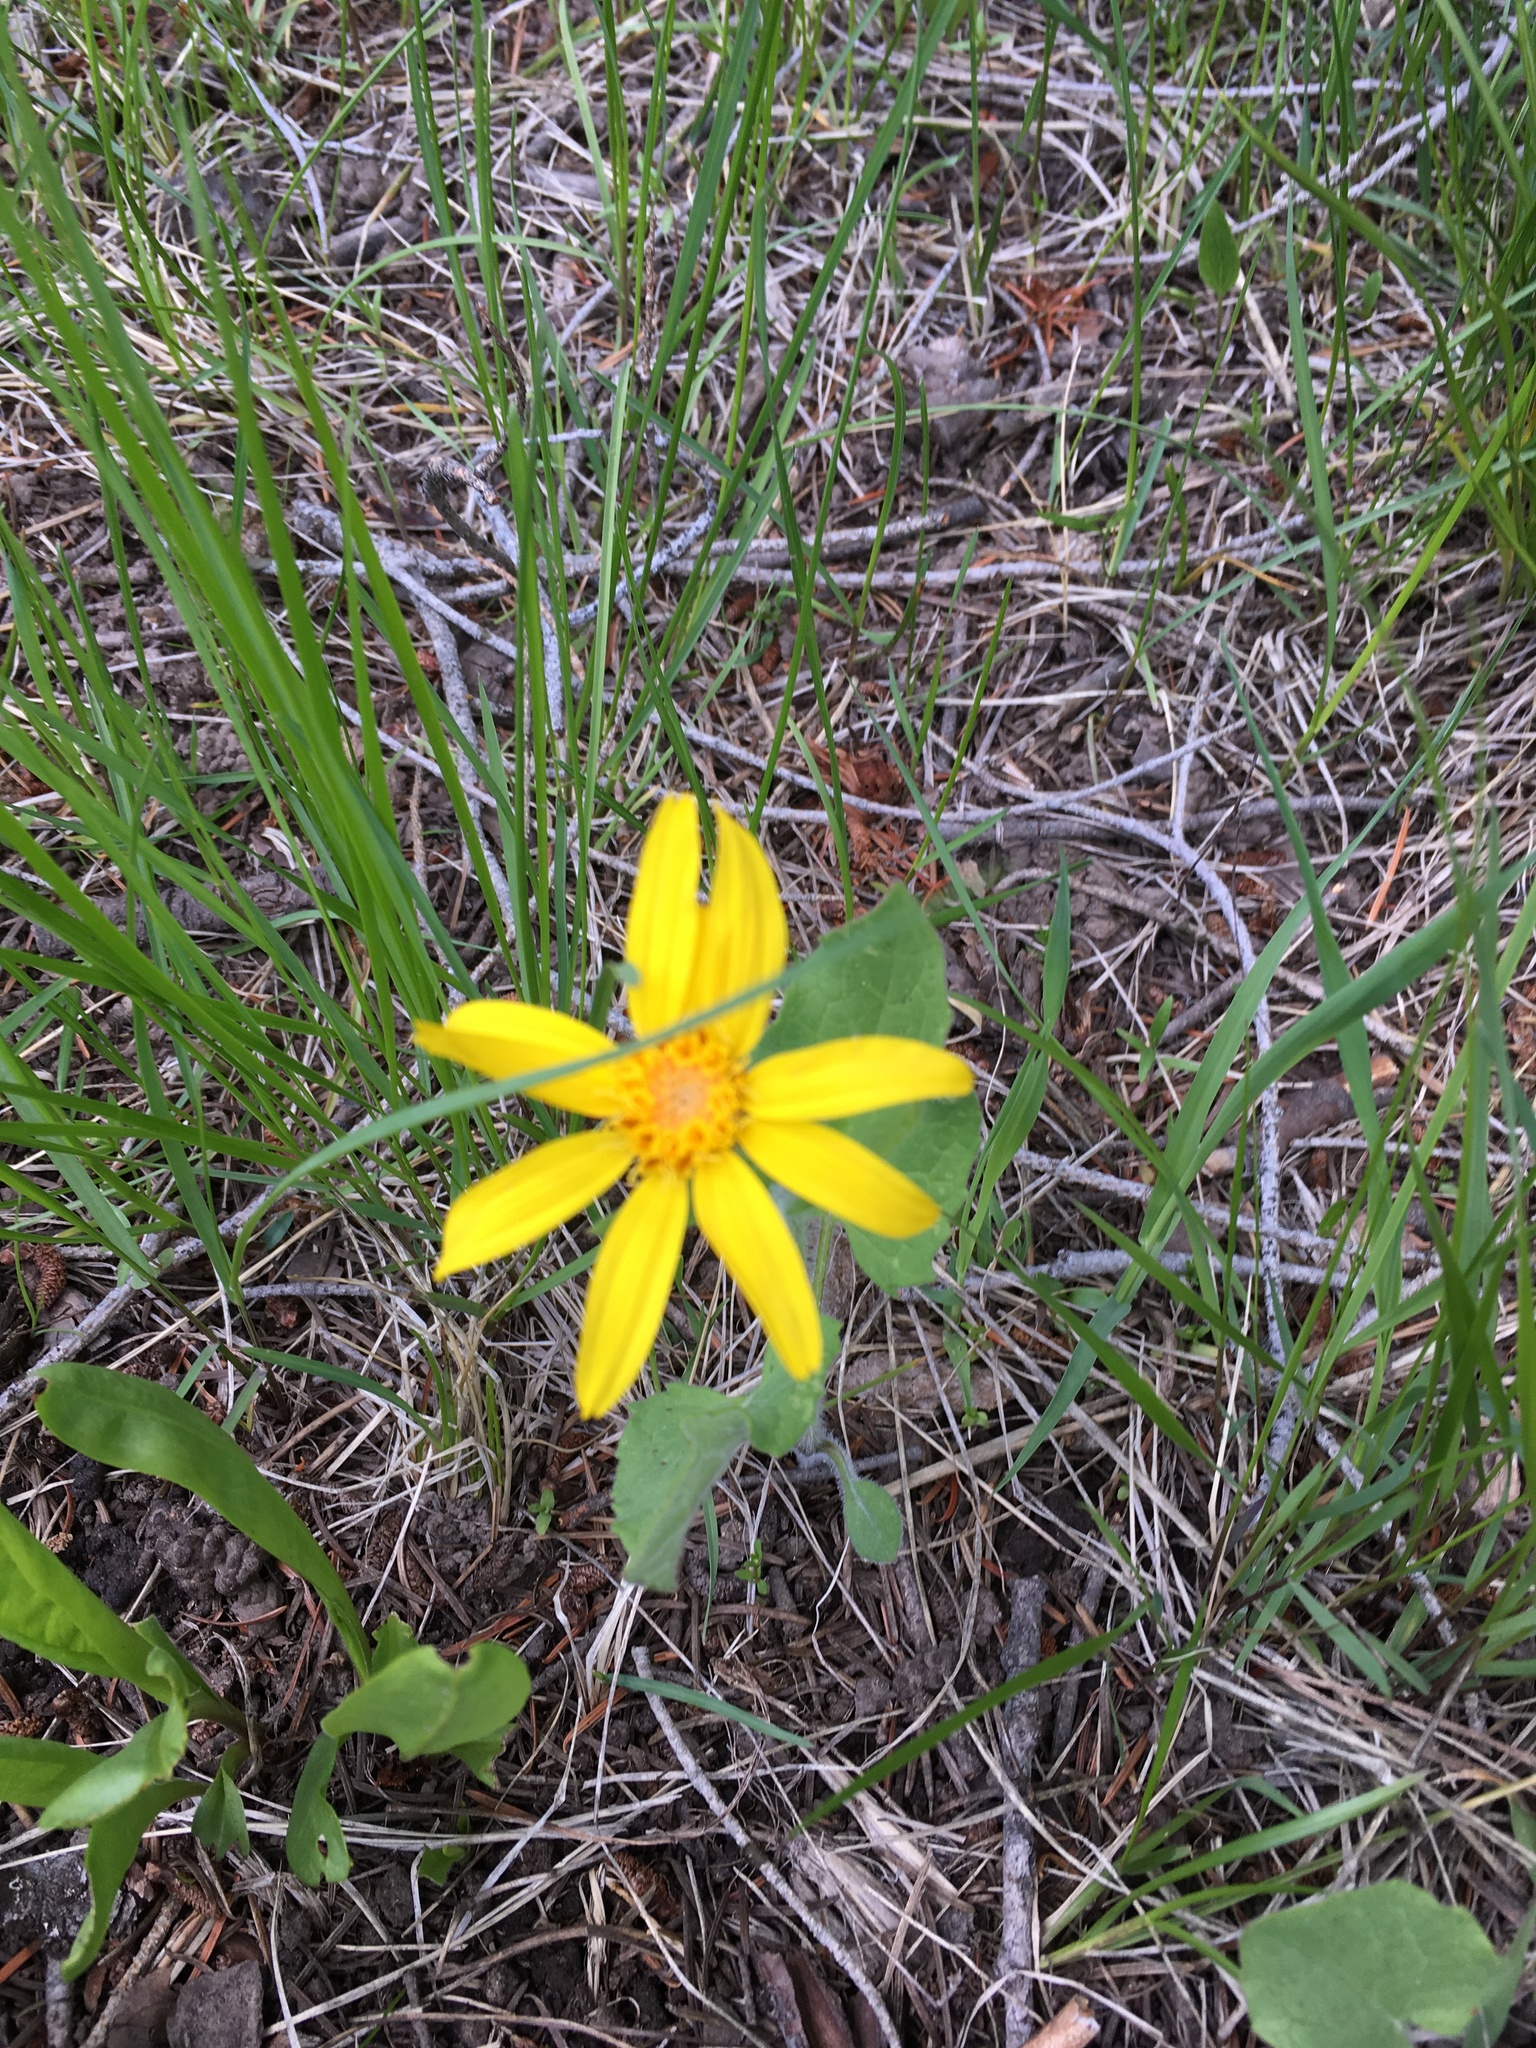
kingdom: Plantae
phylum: Tracheophyta
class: Magnoliopsida
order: Asterales
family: Asteraceae
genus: Arnica
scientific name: Arnica cordifolia
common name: Heart-leaf arnica
